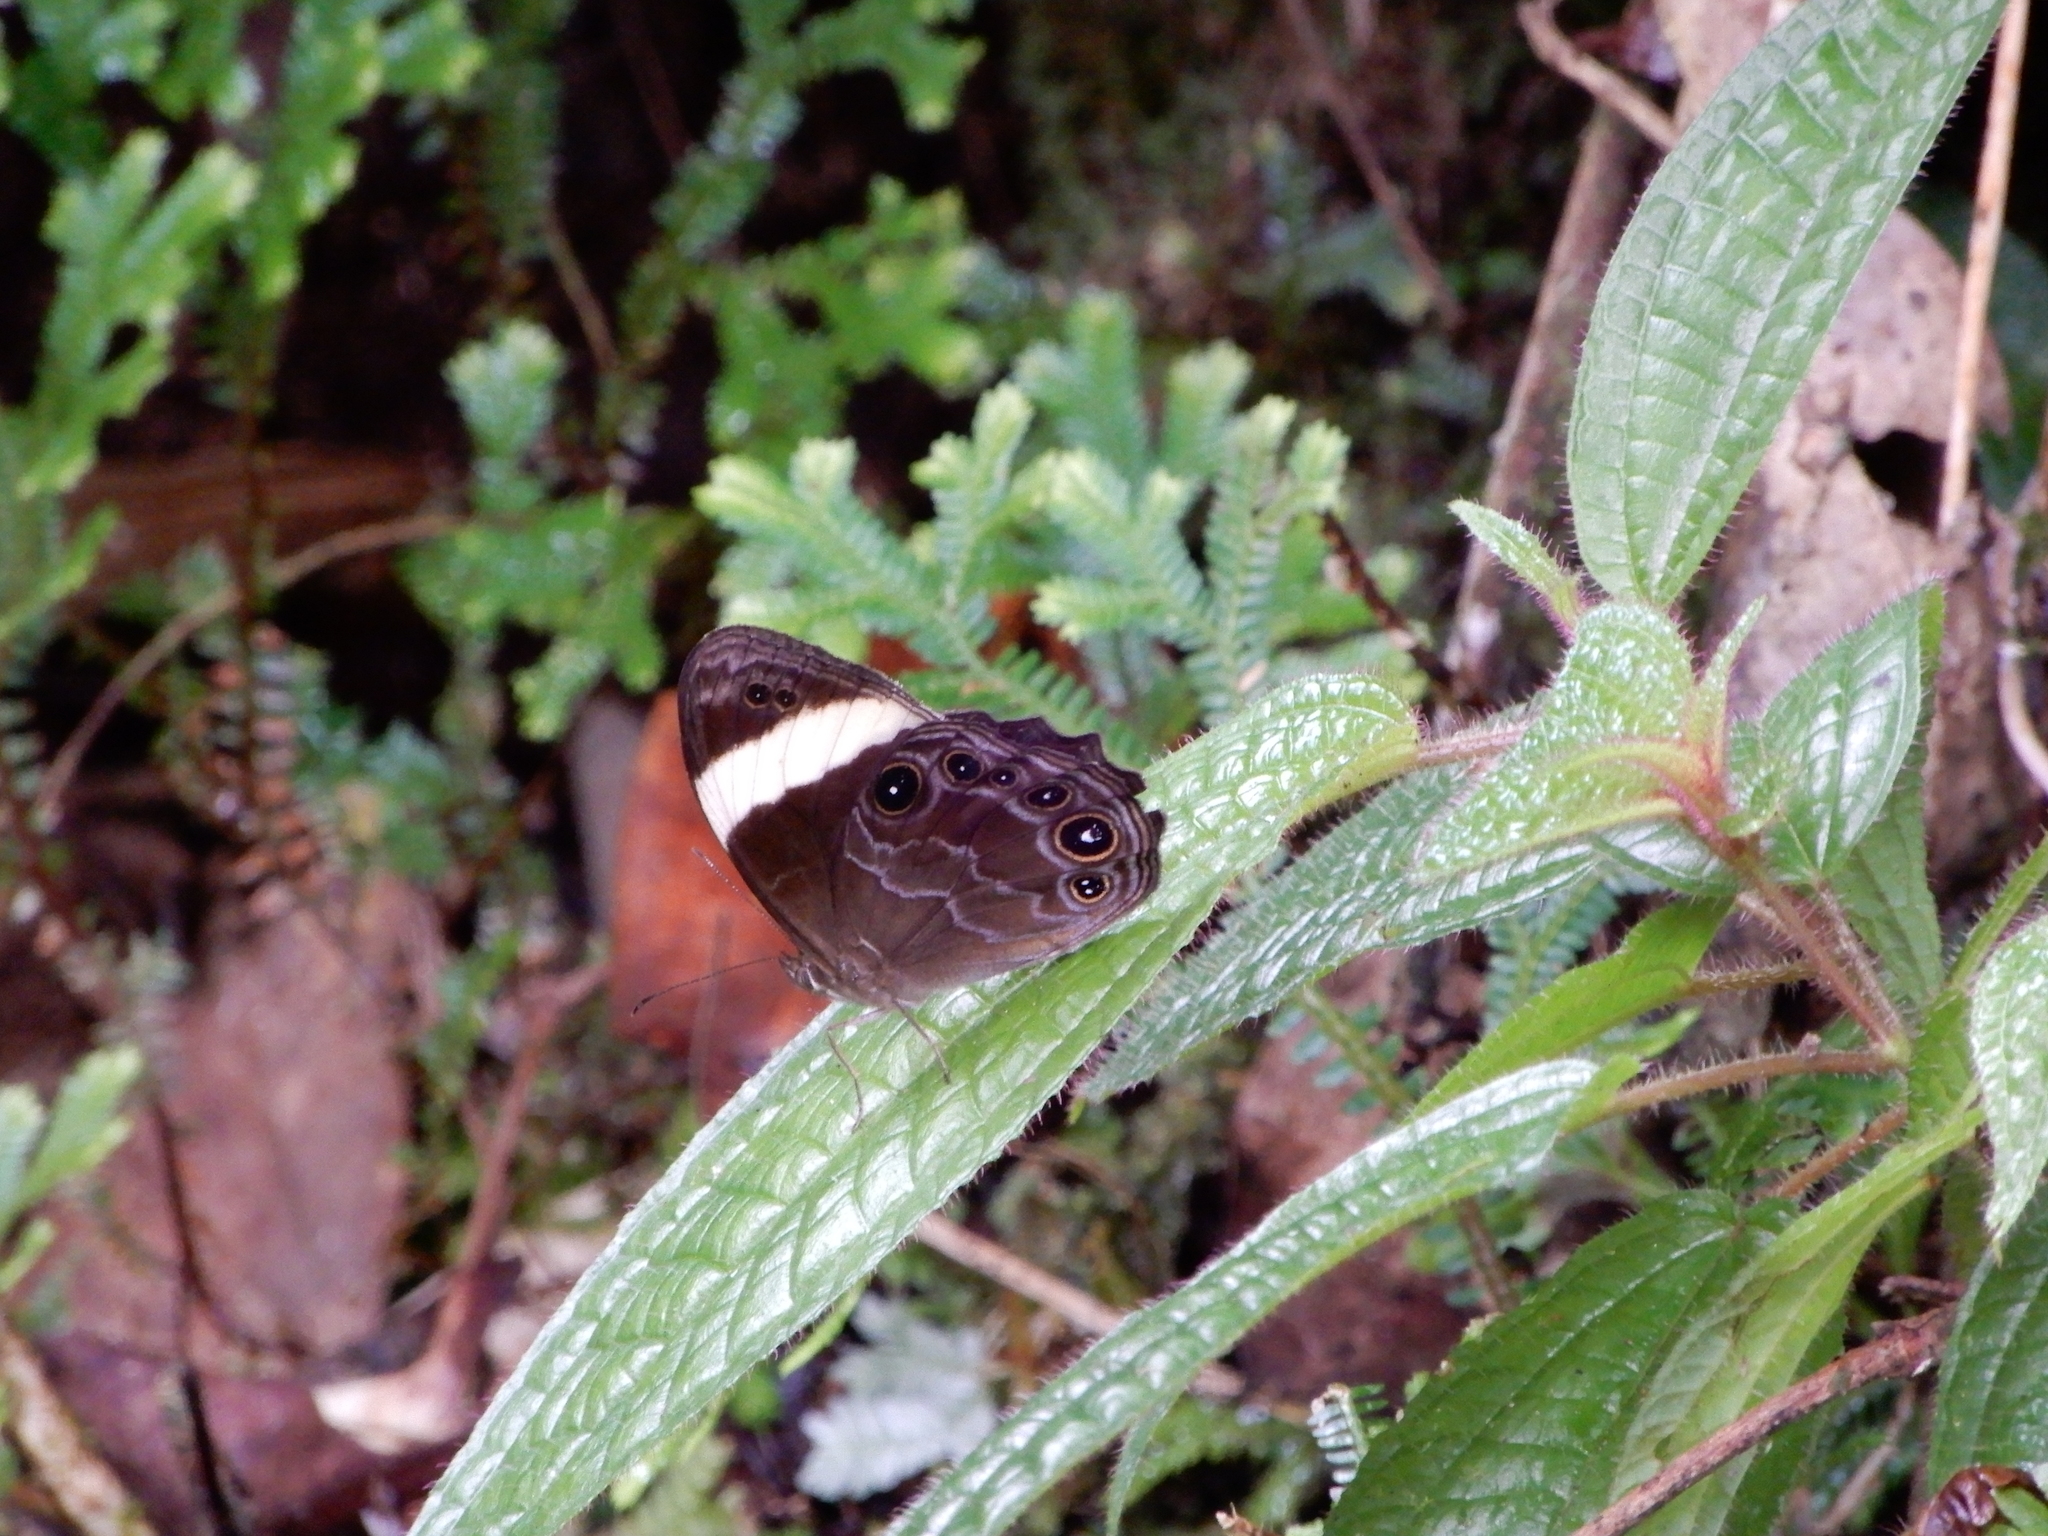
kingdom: Animalia
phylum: Arthropoda
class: Insecta
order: Lepidoptera
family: Nymphalidae
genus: Lethe
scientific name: Lethe verma
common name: Straight-banded treebrown
